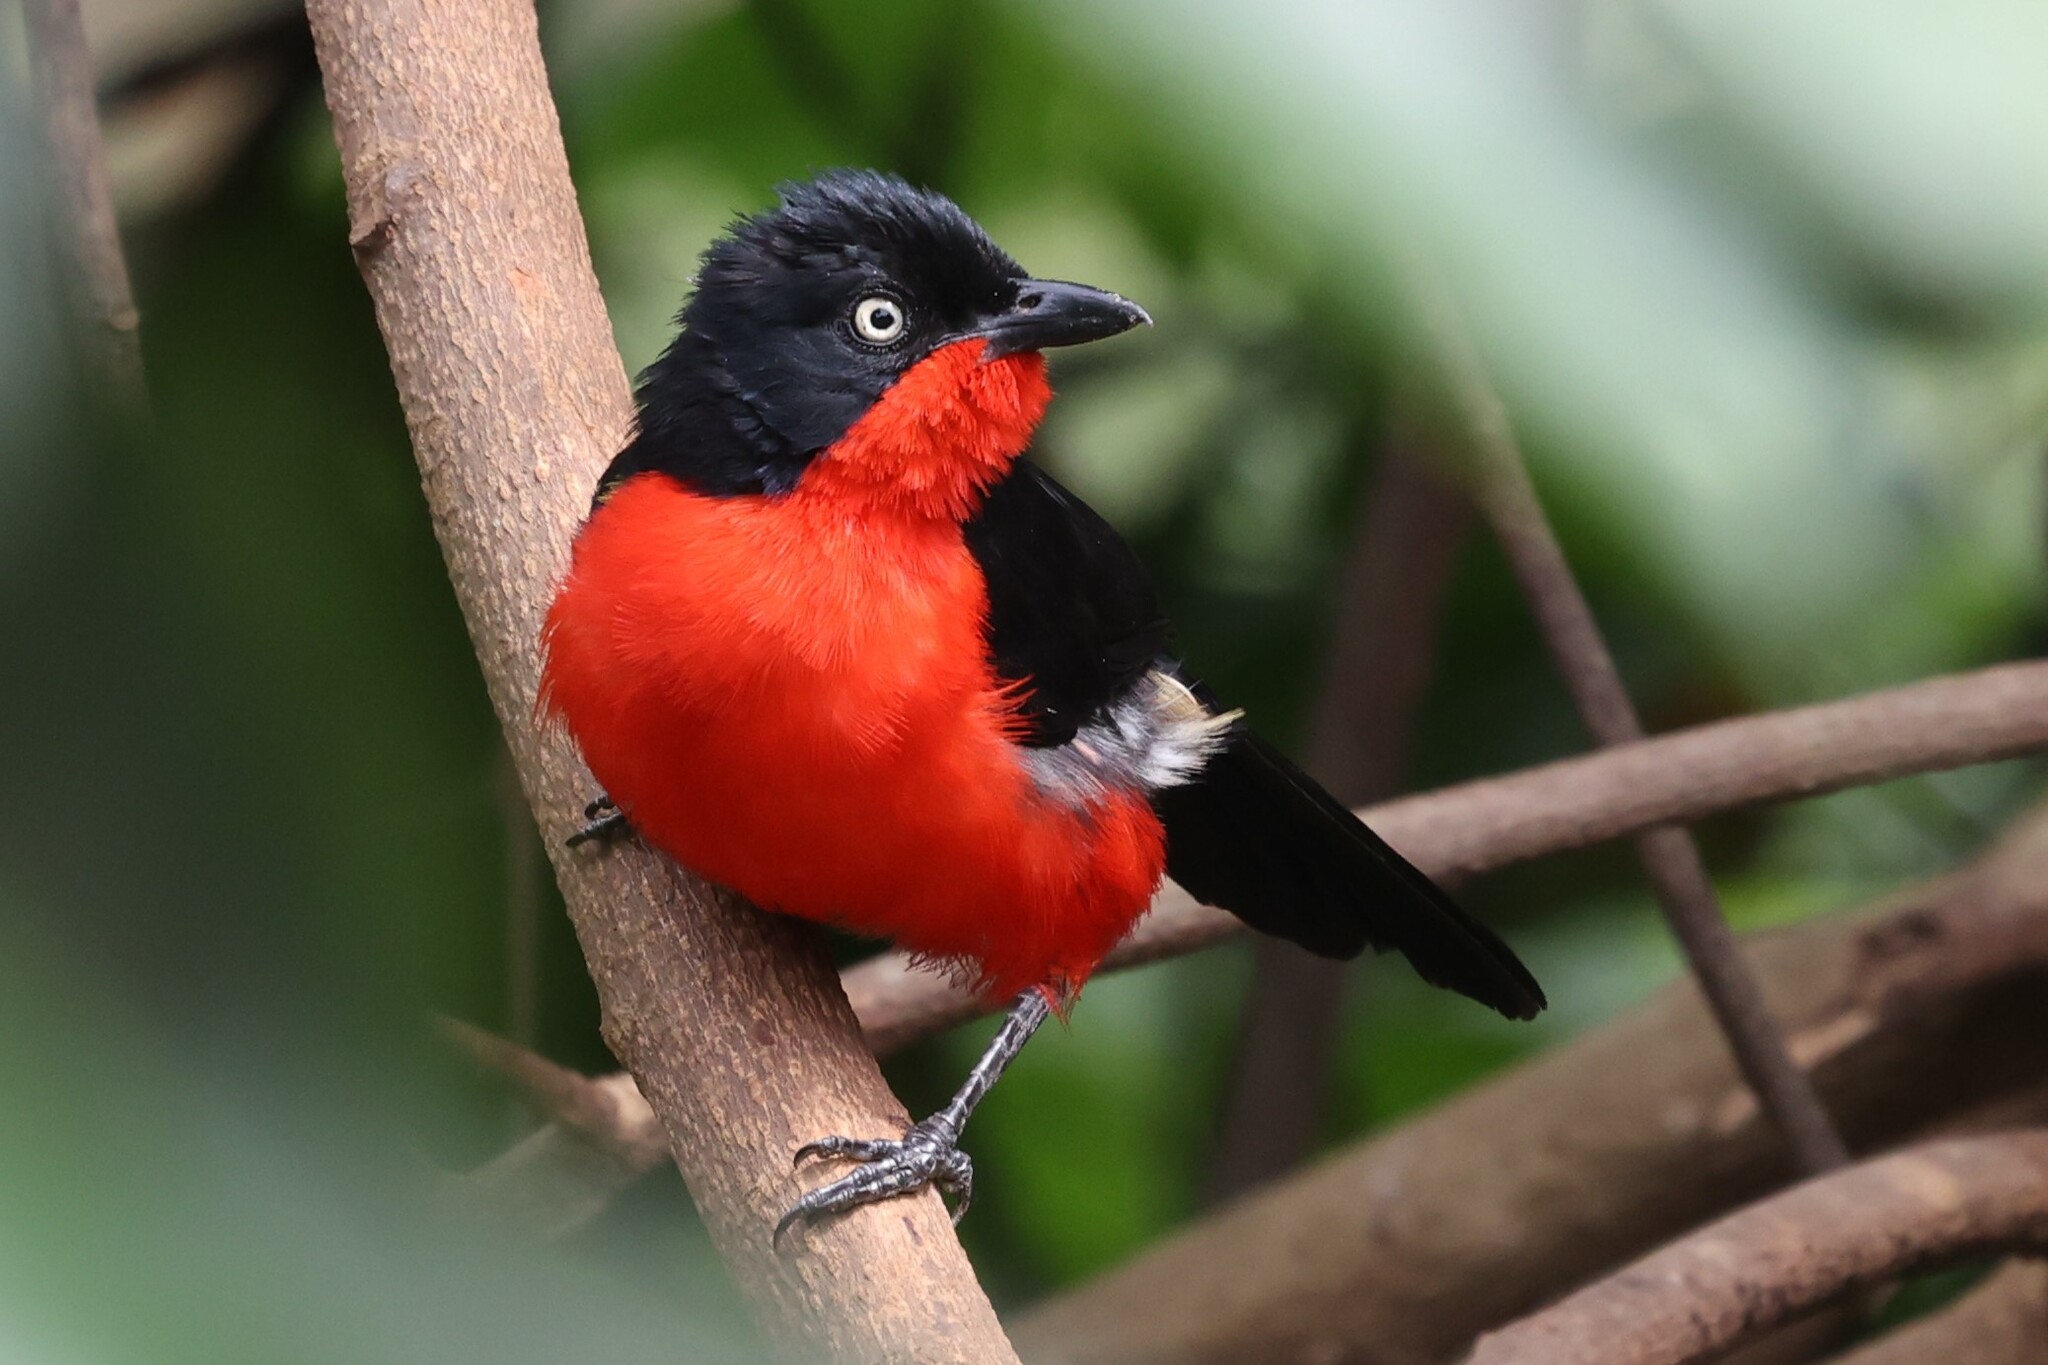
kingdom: Animalia
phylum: Chordata
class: Aves
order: Passeriformes
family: Malaconotidae
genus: Laniarius
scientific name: Laniarius erythrogaster
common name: Black-headed gonolek
